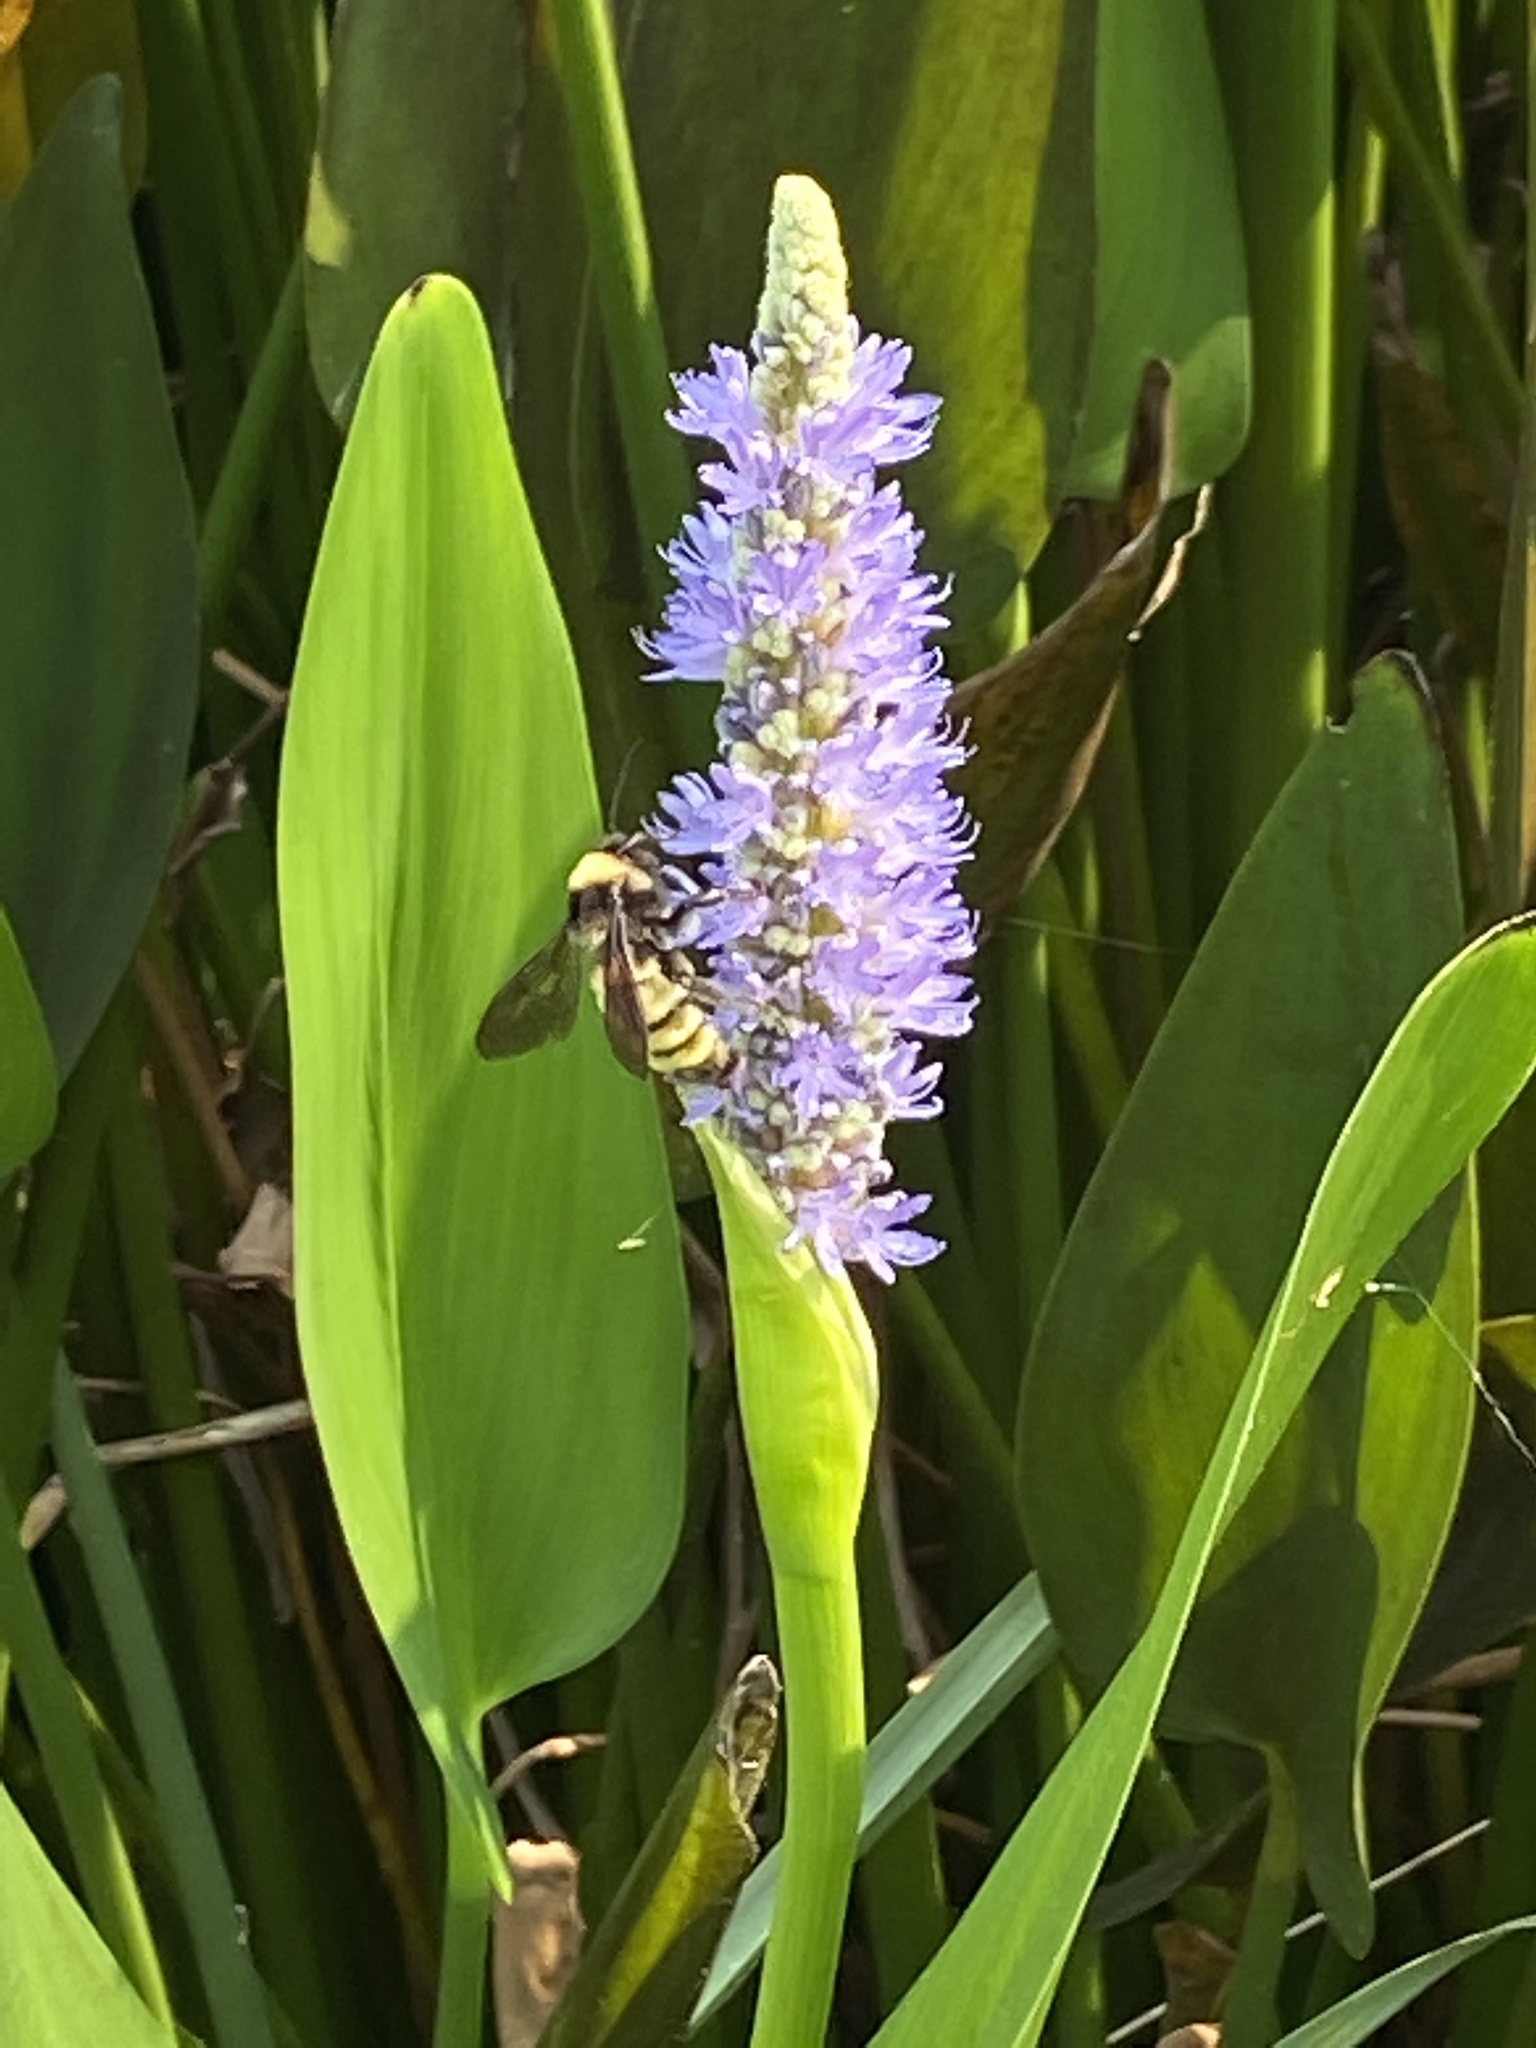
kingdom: Animalia
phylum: Arthropoda
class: Insecta
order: Hymenoptera
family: Apidae
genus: Bombus
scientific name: Bombus pensylvanicus
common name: Bumble bee
